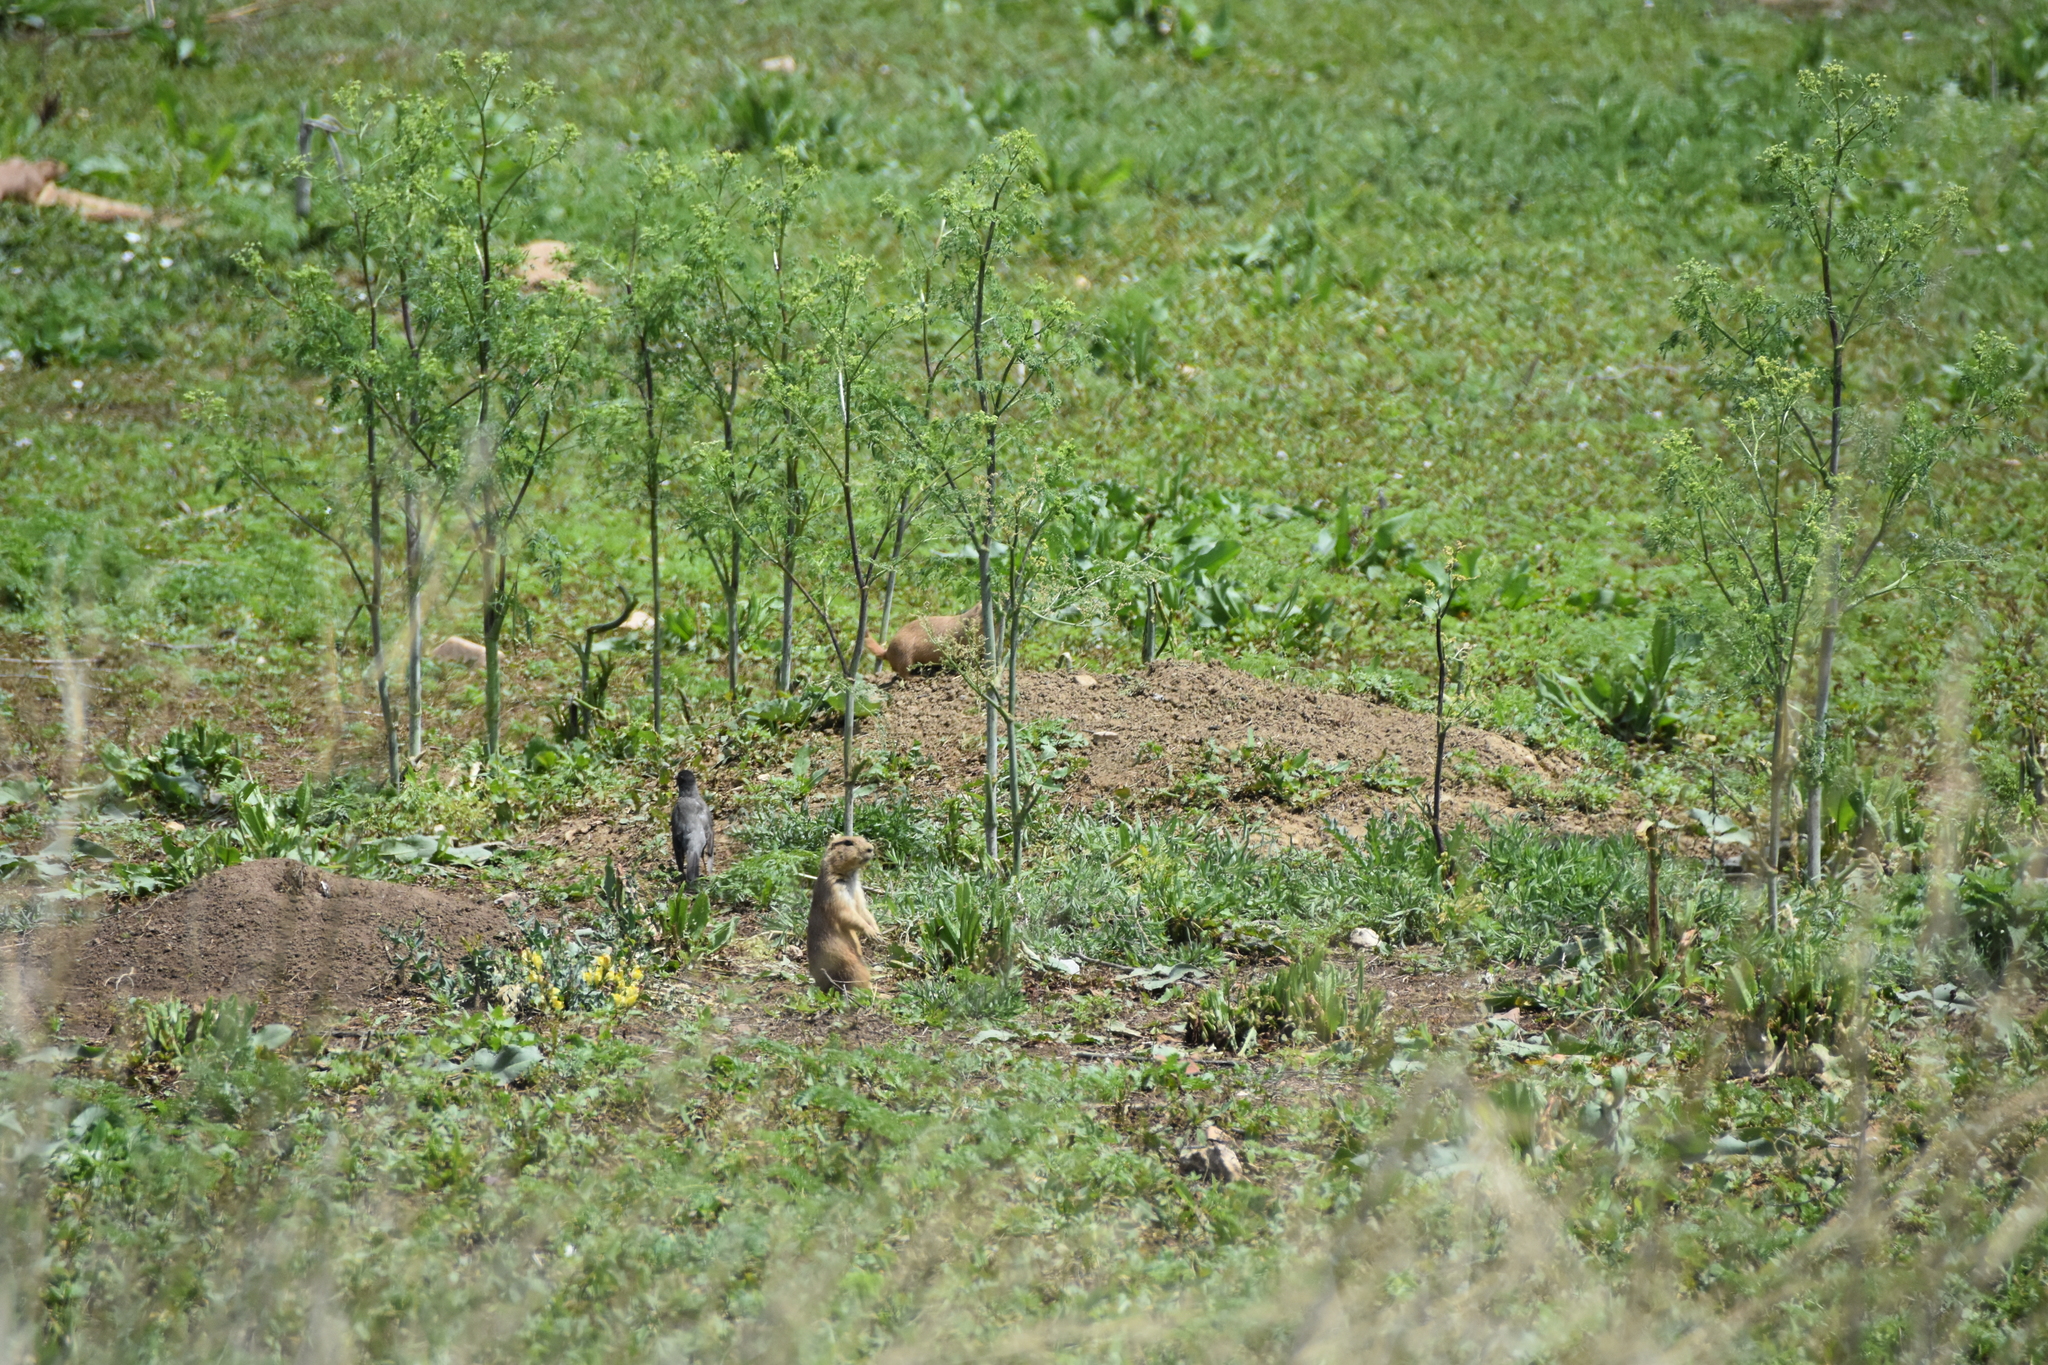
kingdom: Animalia
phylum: Chordata
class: Aves
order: Passeriformes
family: Turdidae
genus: Turdus
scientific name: Turdus migratorius
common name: American robin
